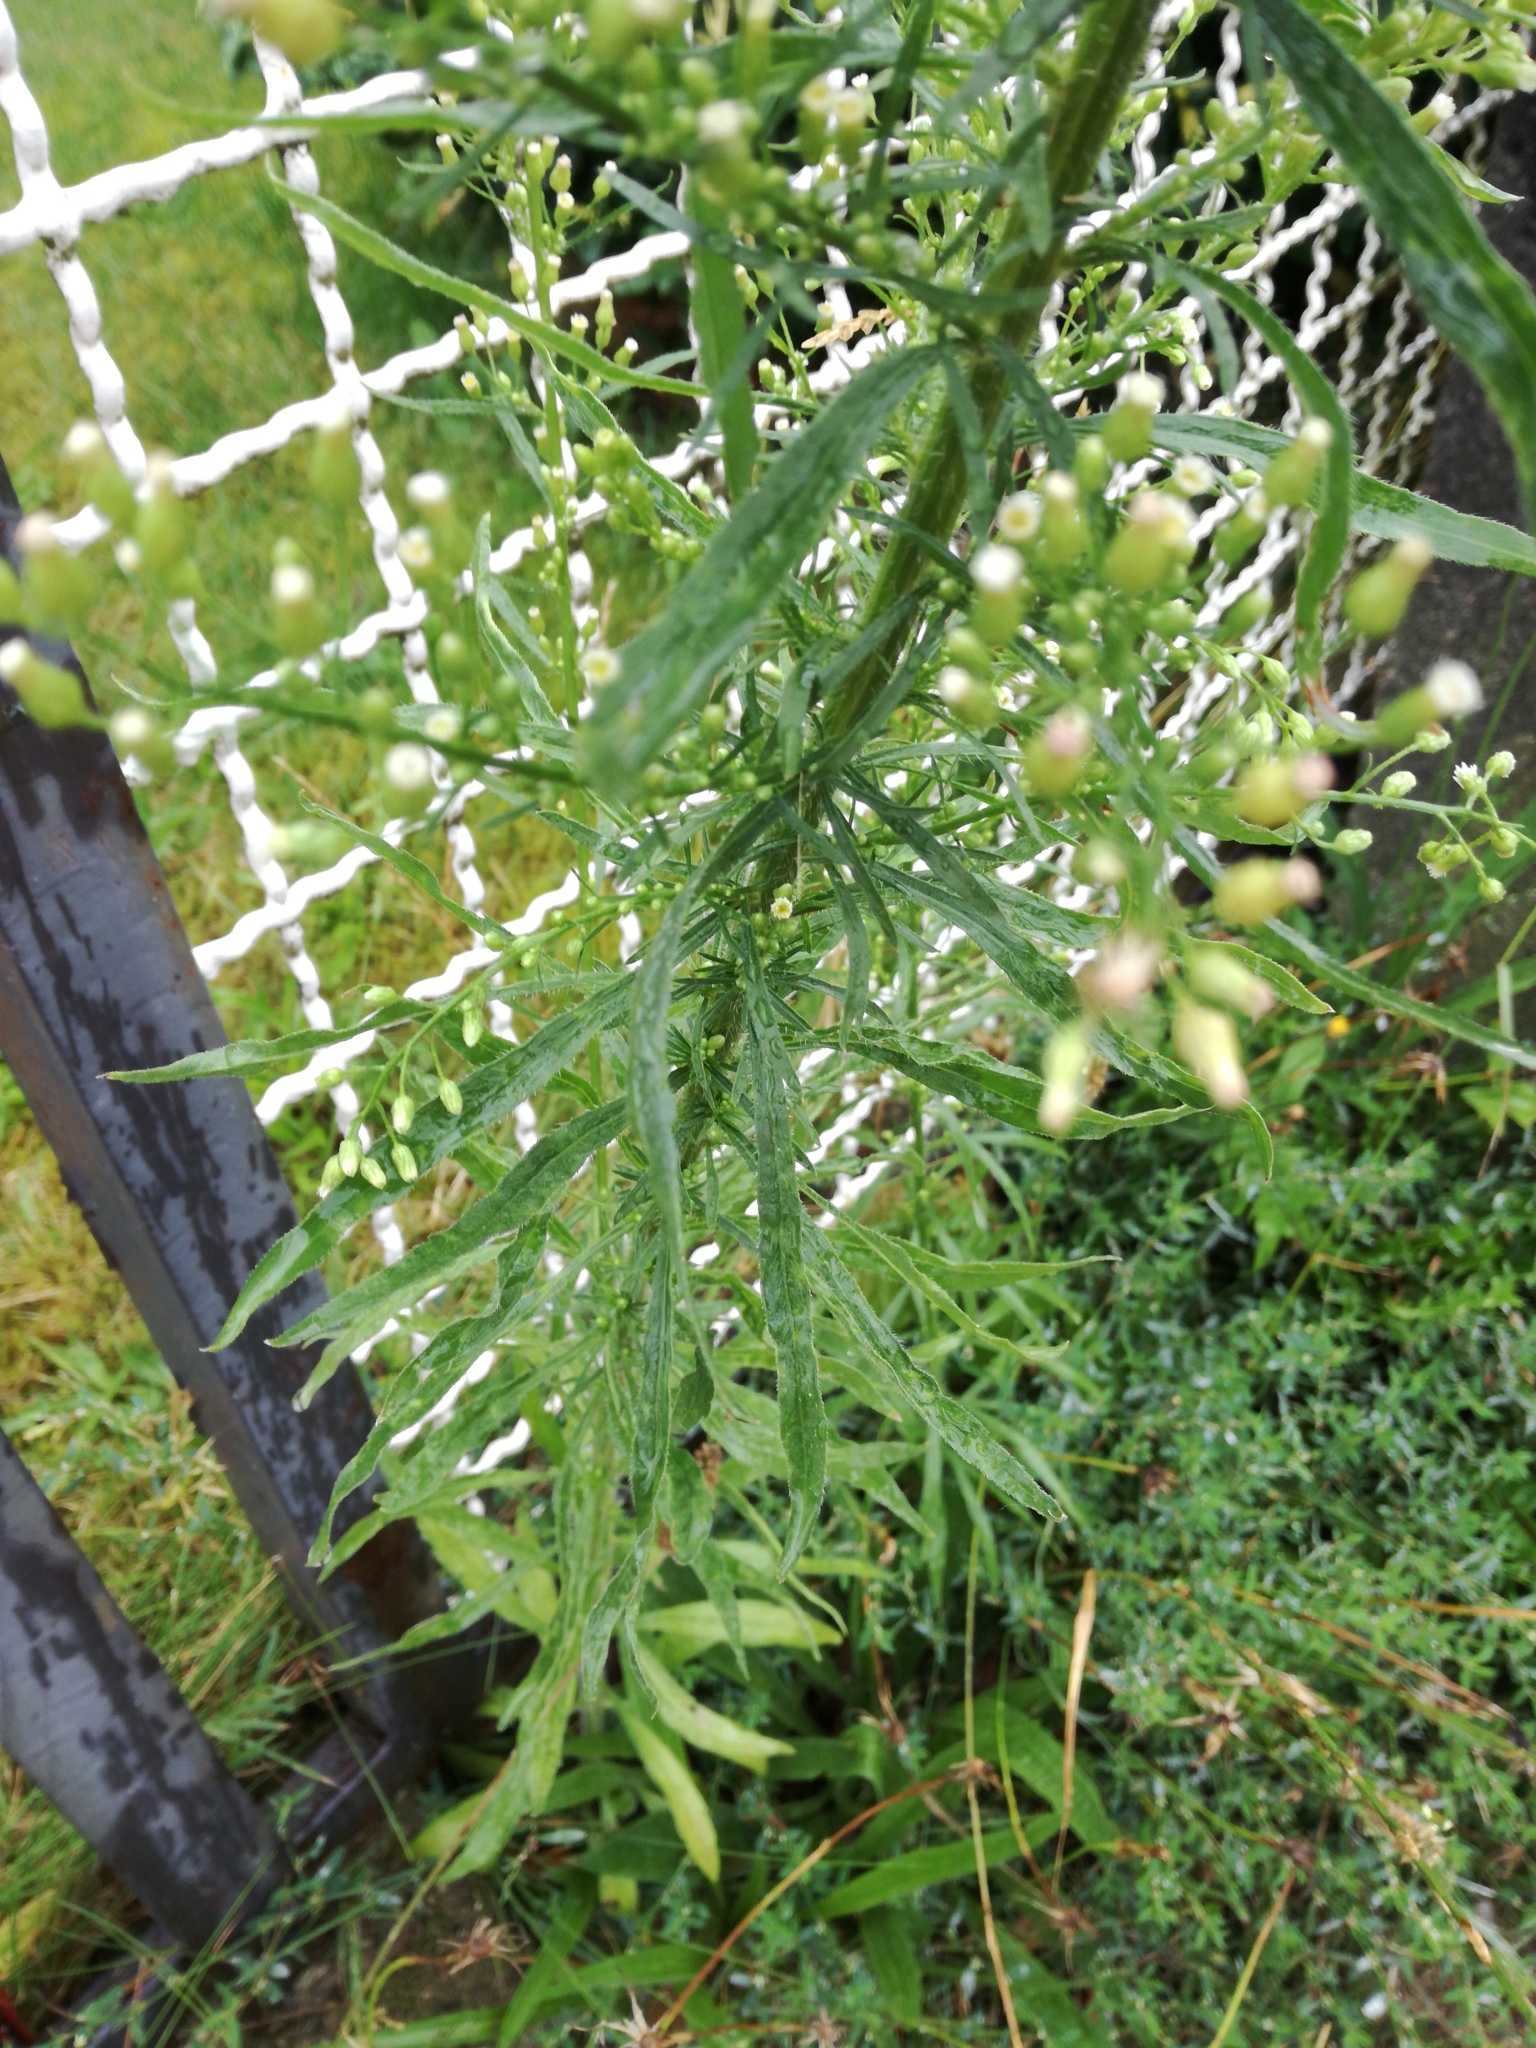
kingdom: Plantae
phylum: Tracheophyta
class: Magnoliopsida
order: Asterales
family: Asteraceae
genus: Erigeron
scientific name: Erigeron canadensis
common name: Canadian fleabane
